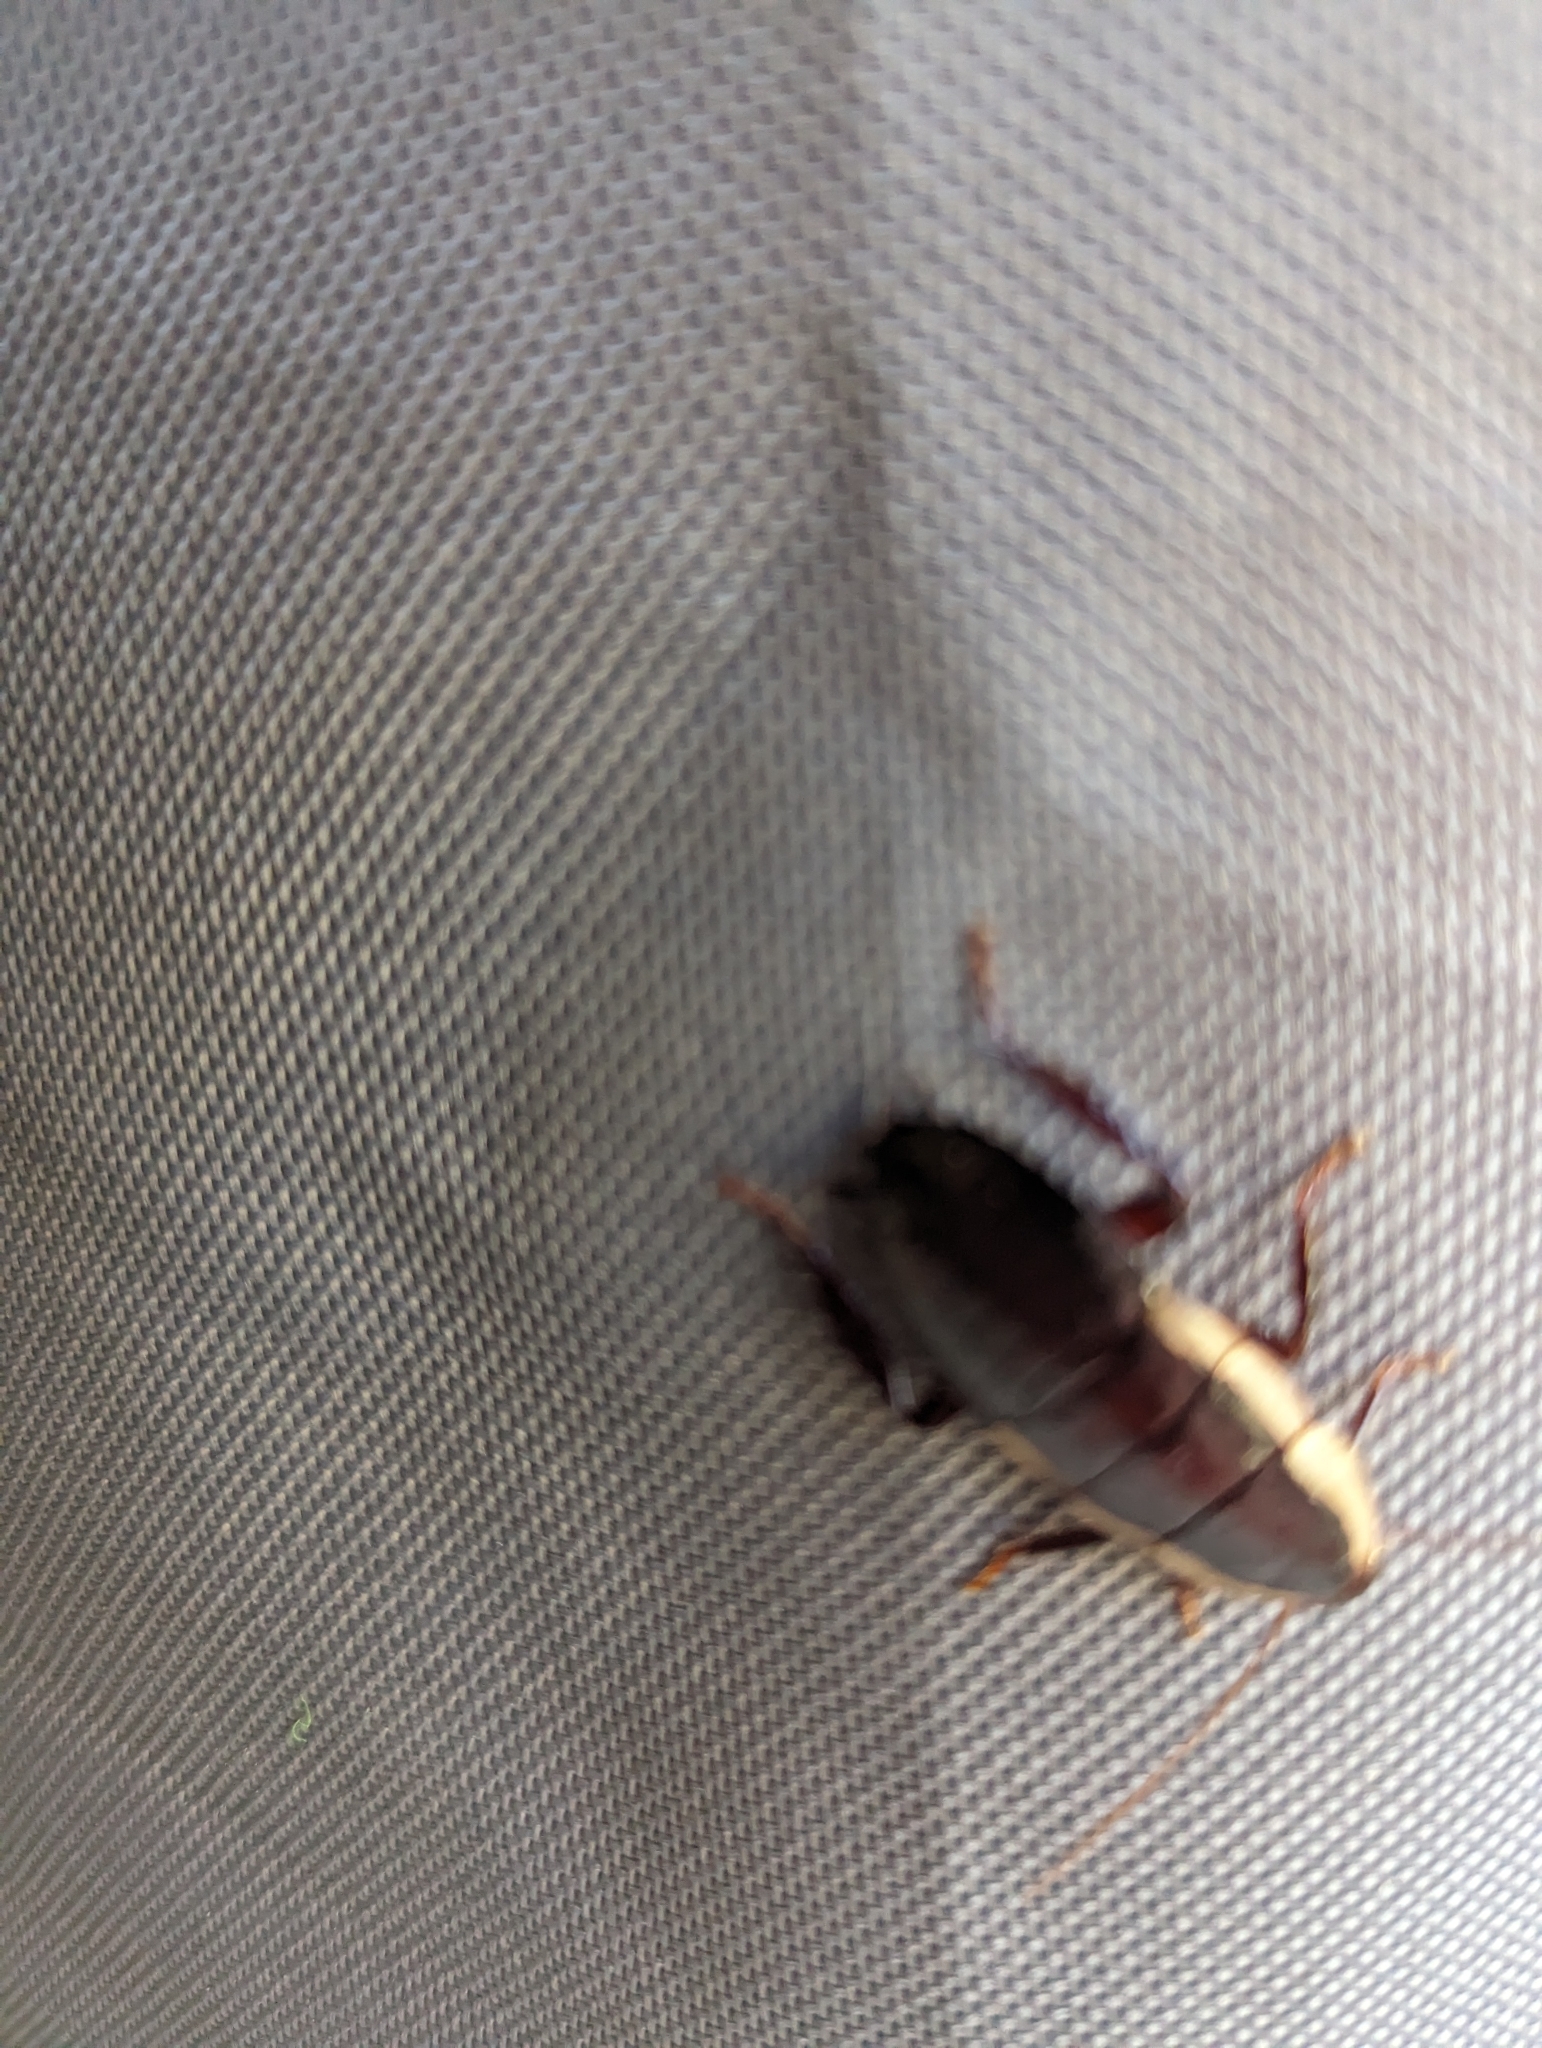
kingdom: Animalia
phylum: Arthropoda
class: Insecta
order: Blattodea
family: Blattidae
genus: Drymaplaneta
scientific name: Drymaplaneta semivitta
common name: Gisborne cockroach
